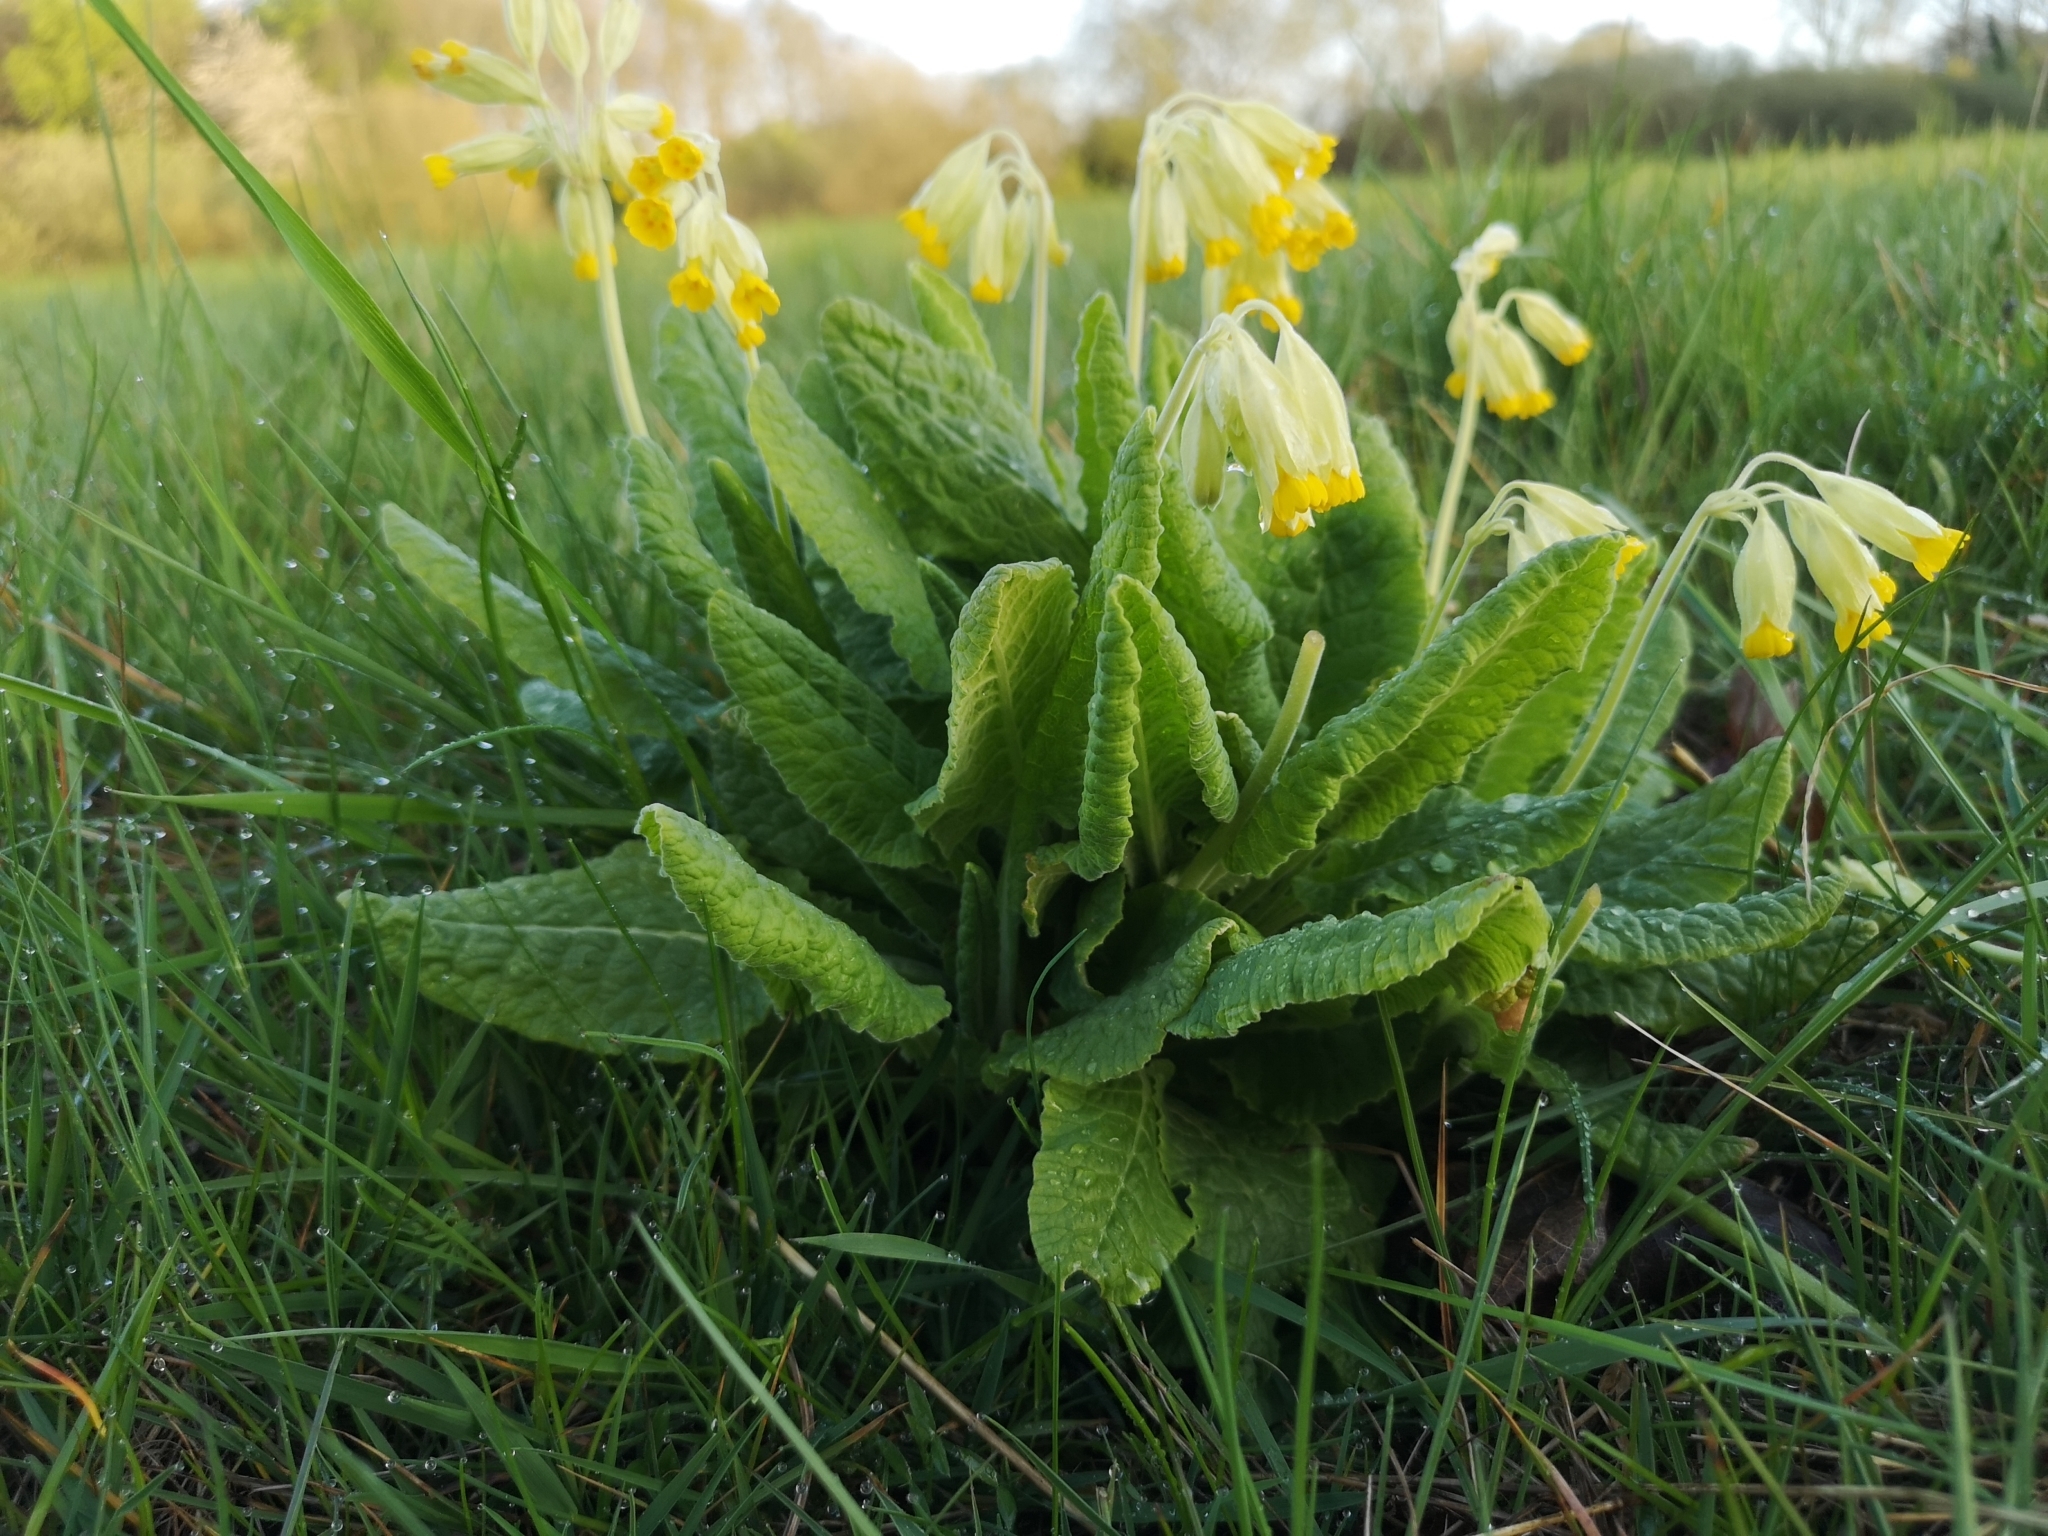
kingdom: Plantae
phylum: Tracheophyta
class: Magnoliopsida
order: Ericales
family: Primulaceae
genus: Primula
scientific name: Primula veris
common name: Cowslip
